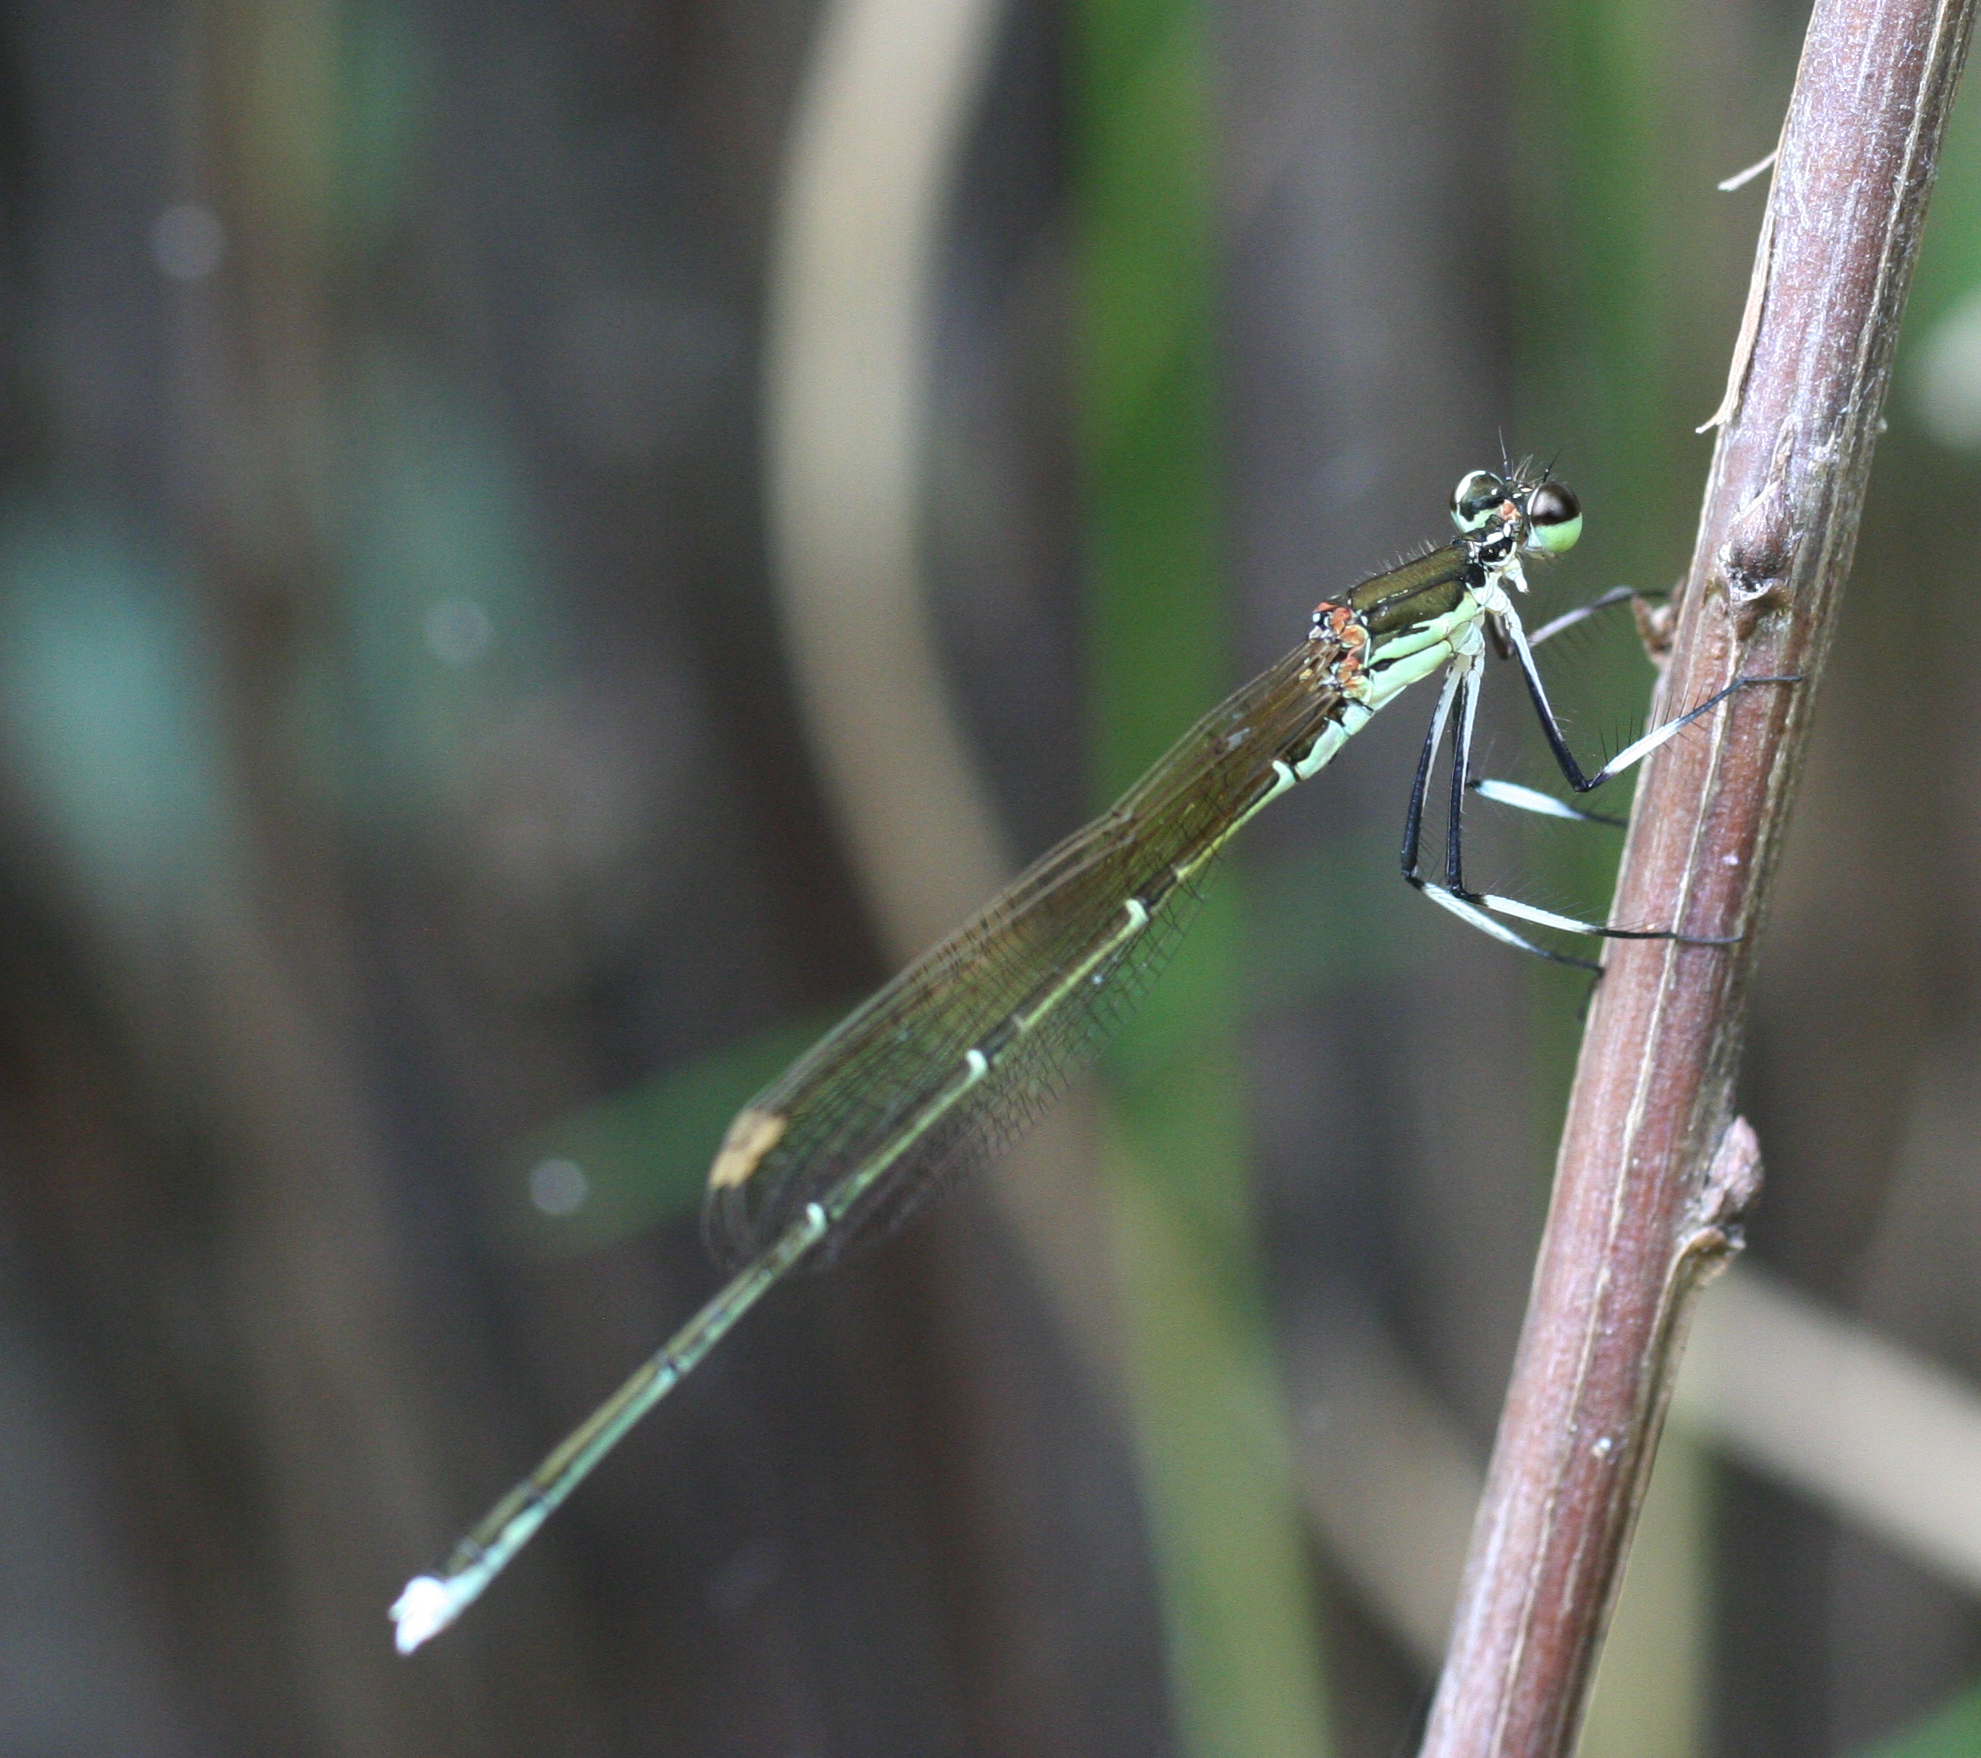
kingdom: Animalia
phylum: Arthropoda
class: Insecta
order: Odonata
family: Platycnemididae
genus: Pseudocopera
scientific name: Pseudocopera rubripes
